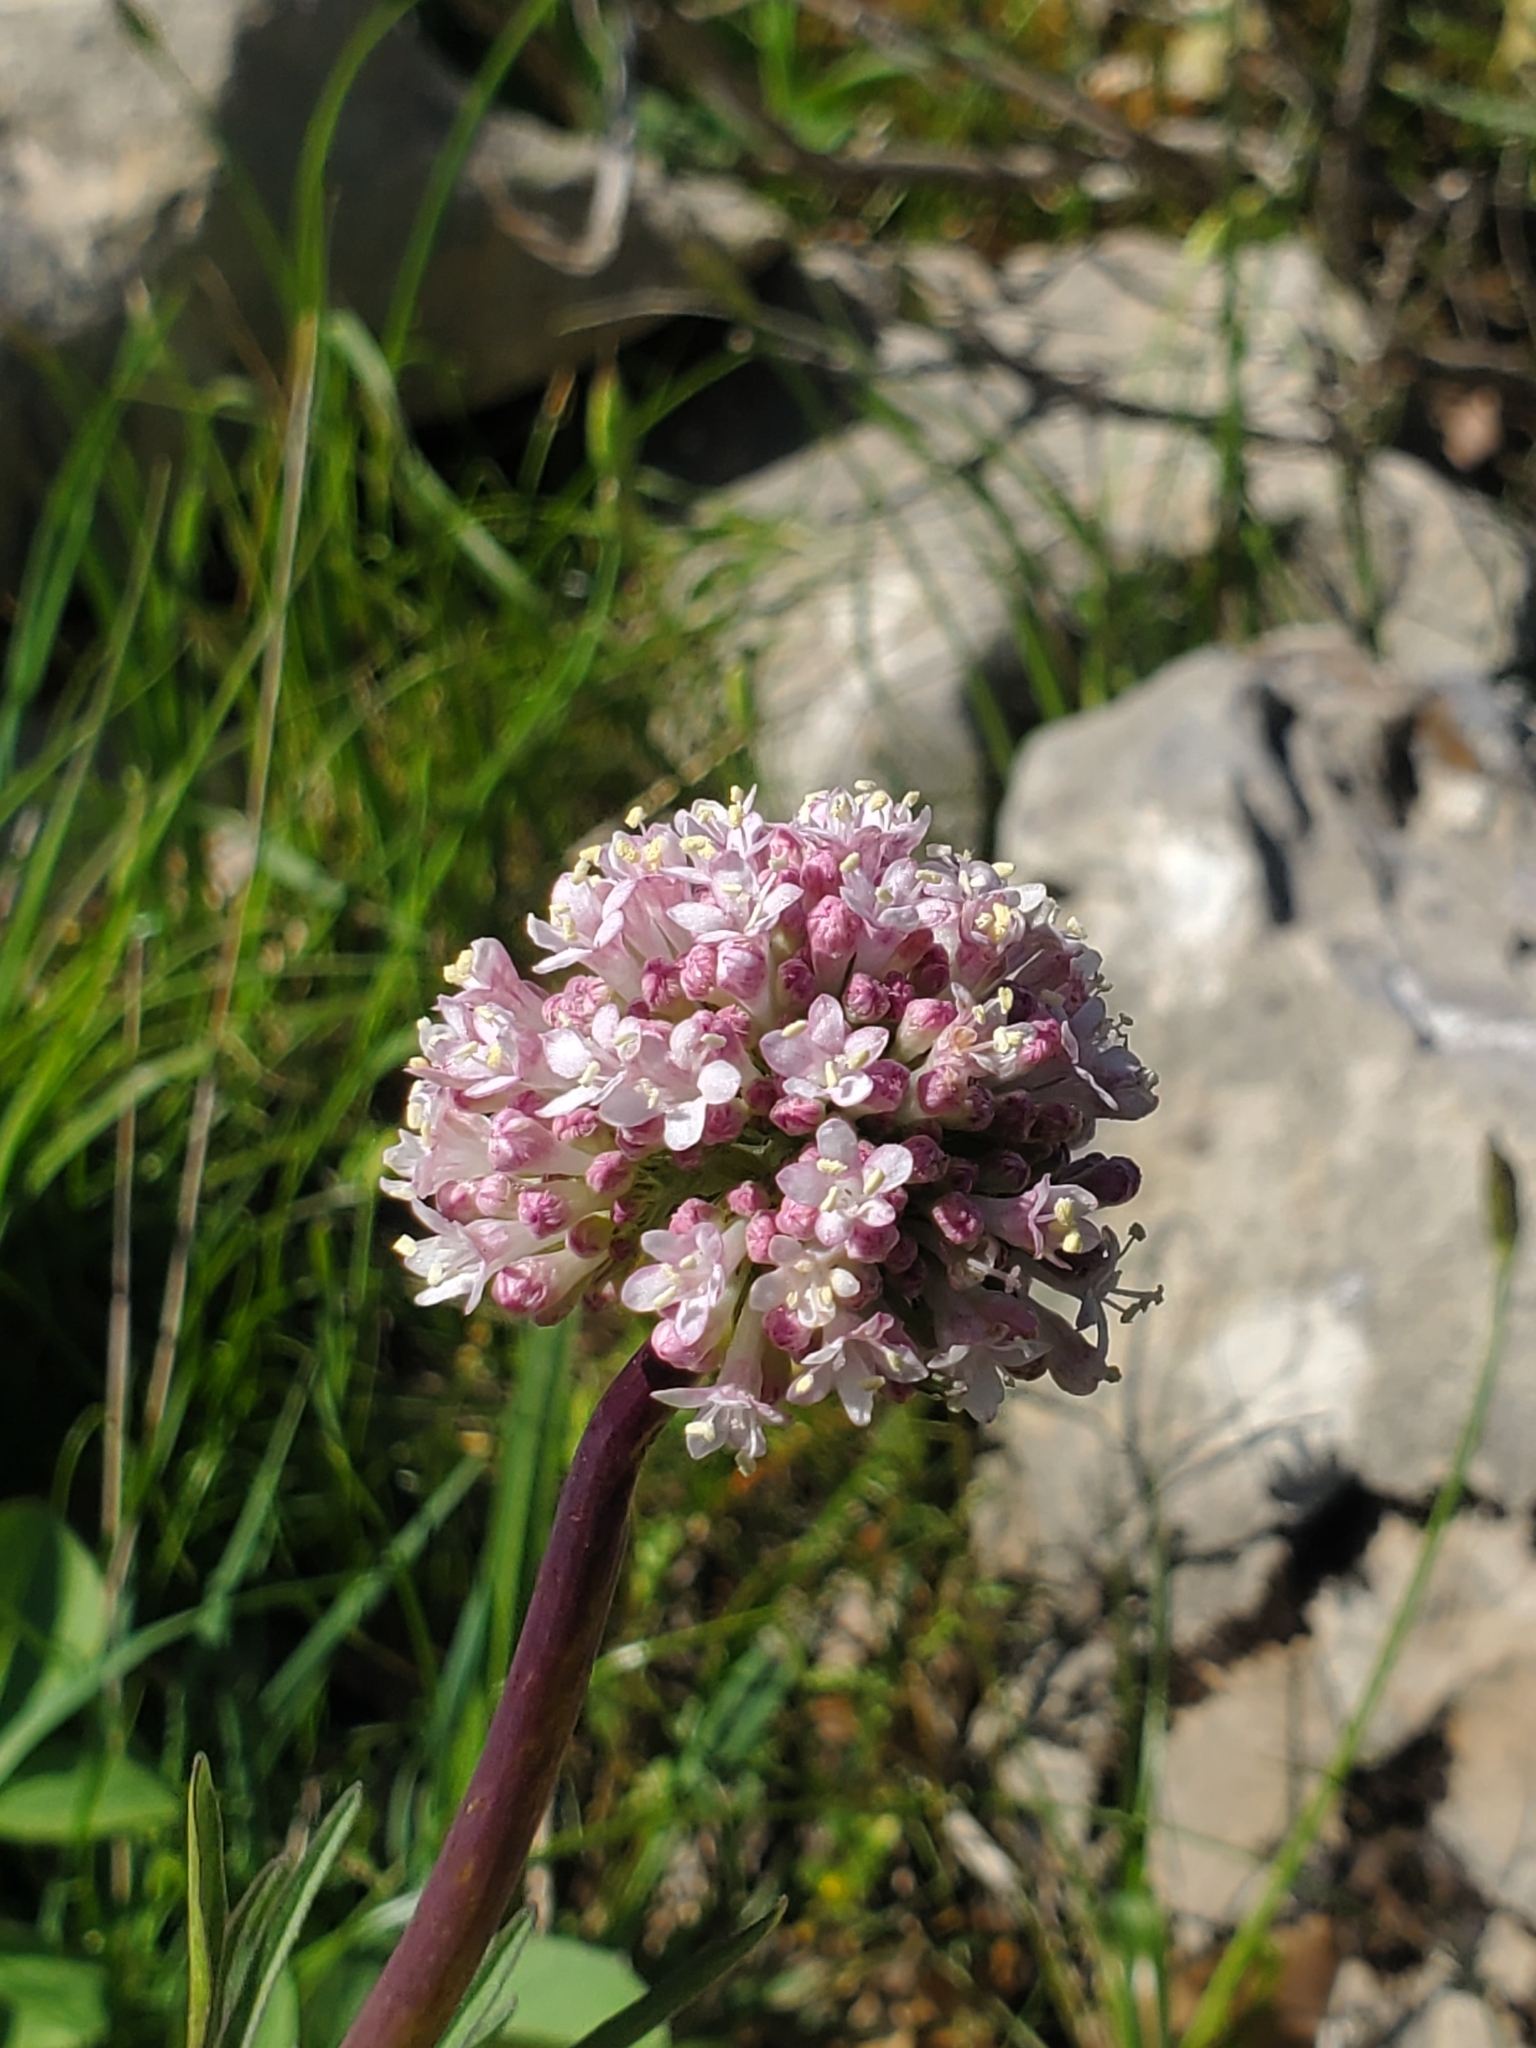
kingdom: Plantae
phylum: Tracheophyta
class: Magnoliopsida
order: Dipsacales
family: Caprifoliaceae
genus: Valeriana
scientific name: Valeriana dioscoridis
